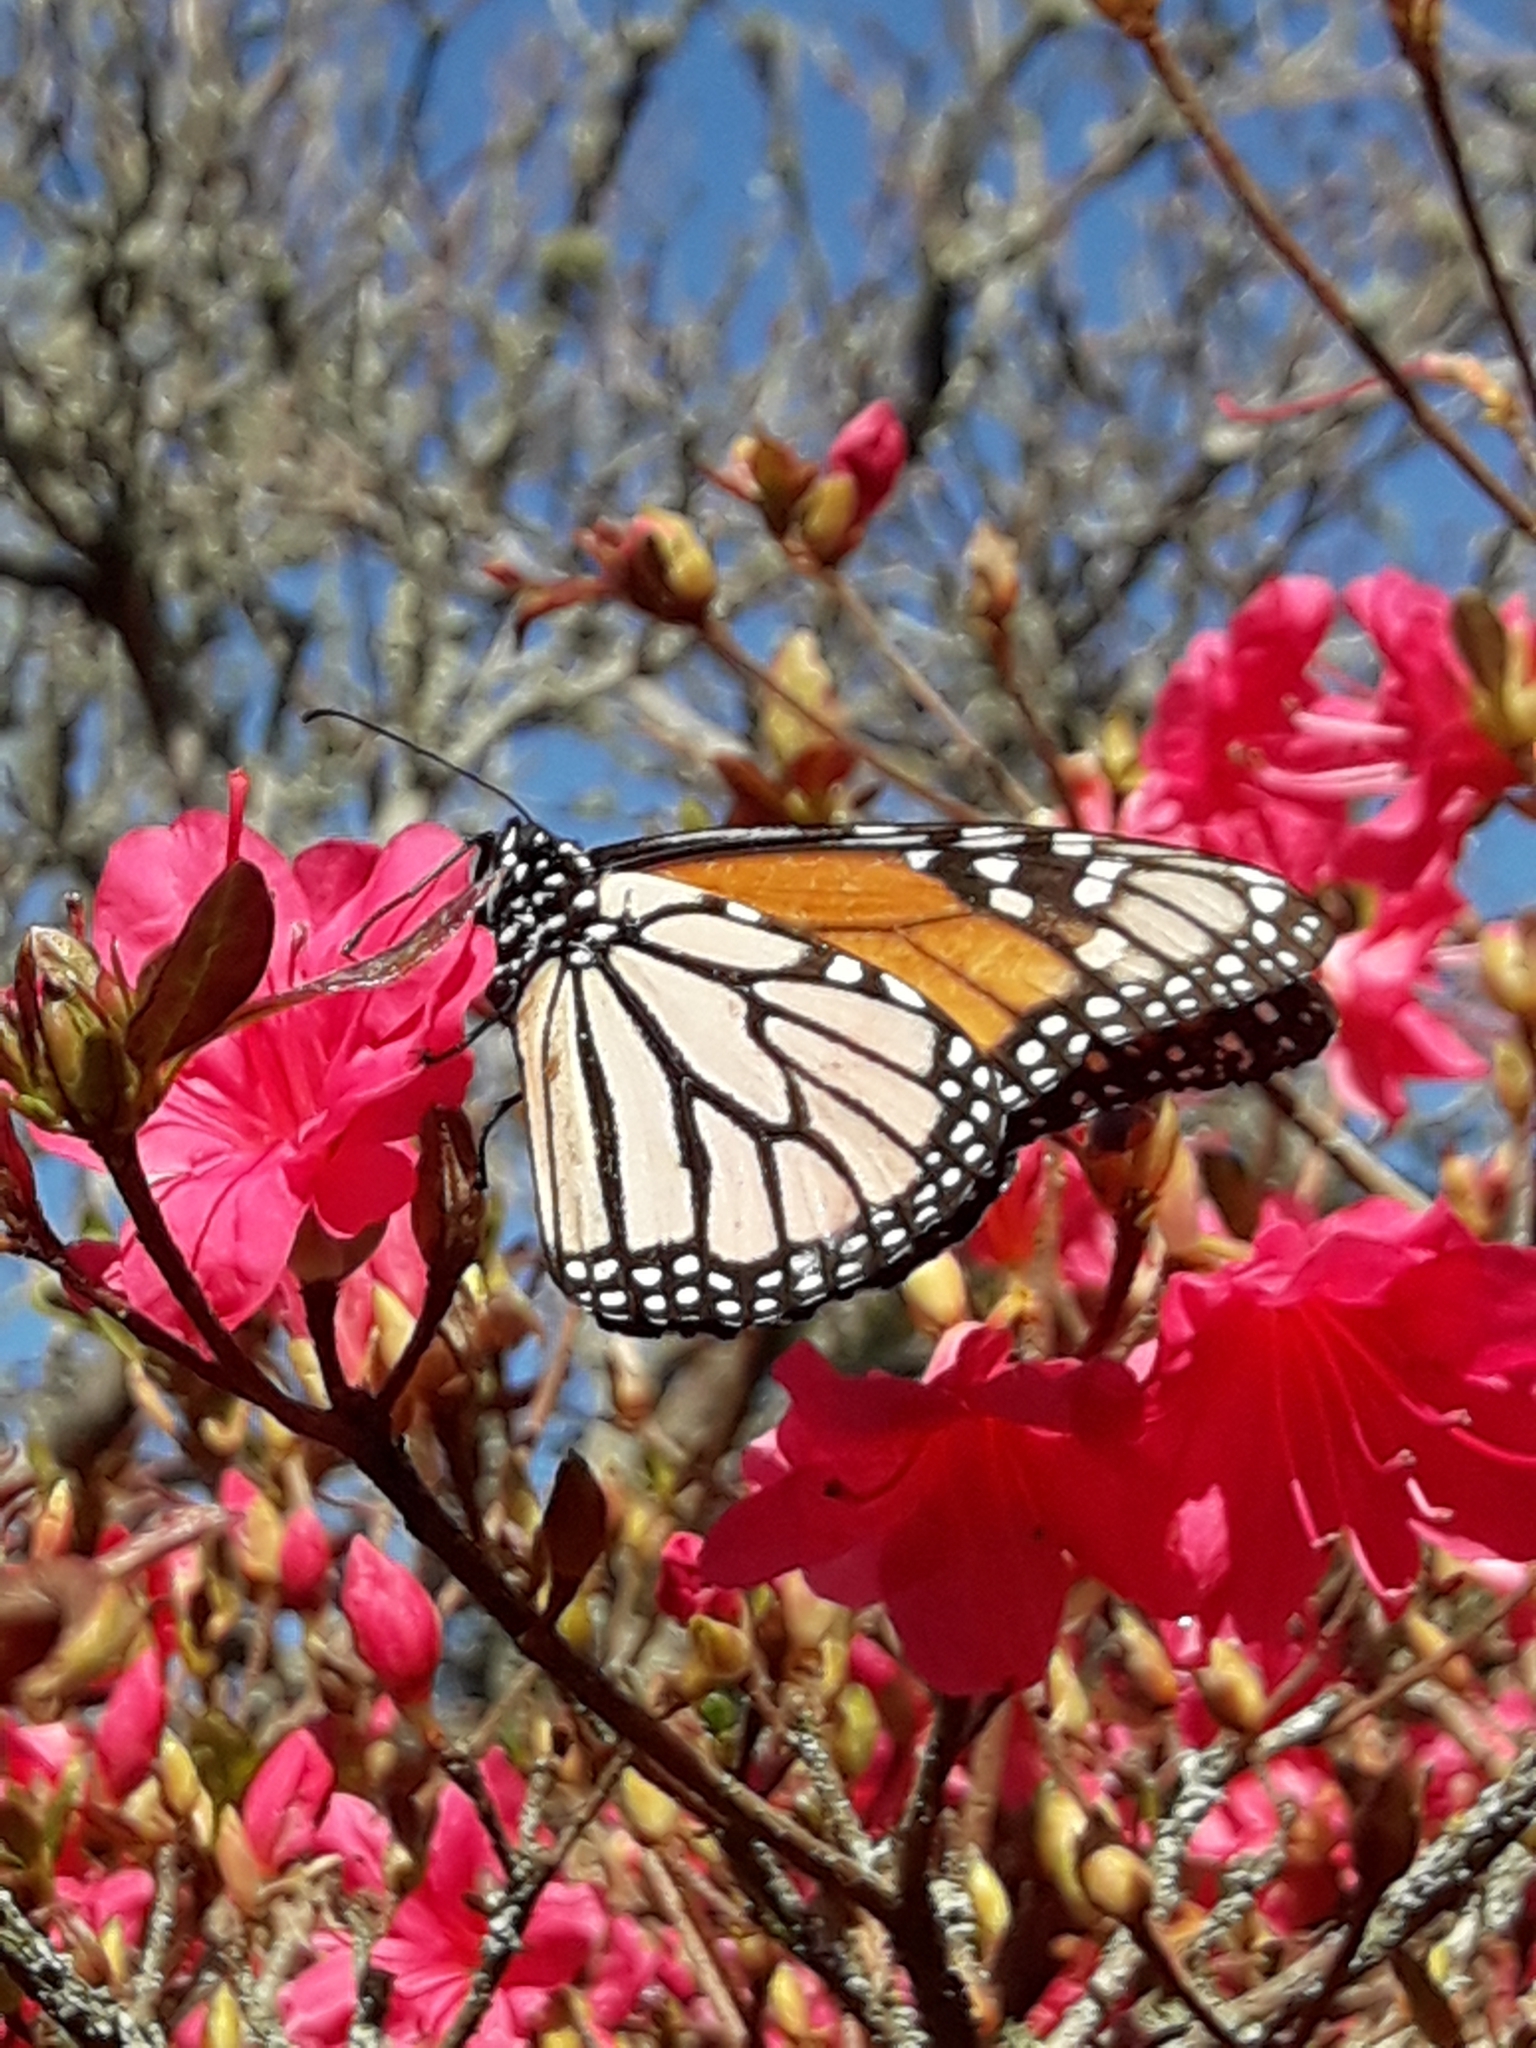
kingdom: Animalia
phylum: Arthropoda
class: Insecta
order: Lepidoptera
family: Nymphalidae
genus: Danaus
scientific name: Danaus plexippus
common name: Monarch
